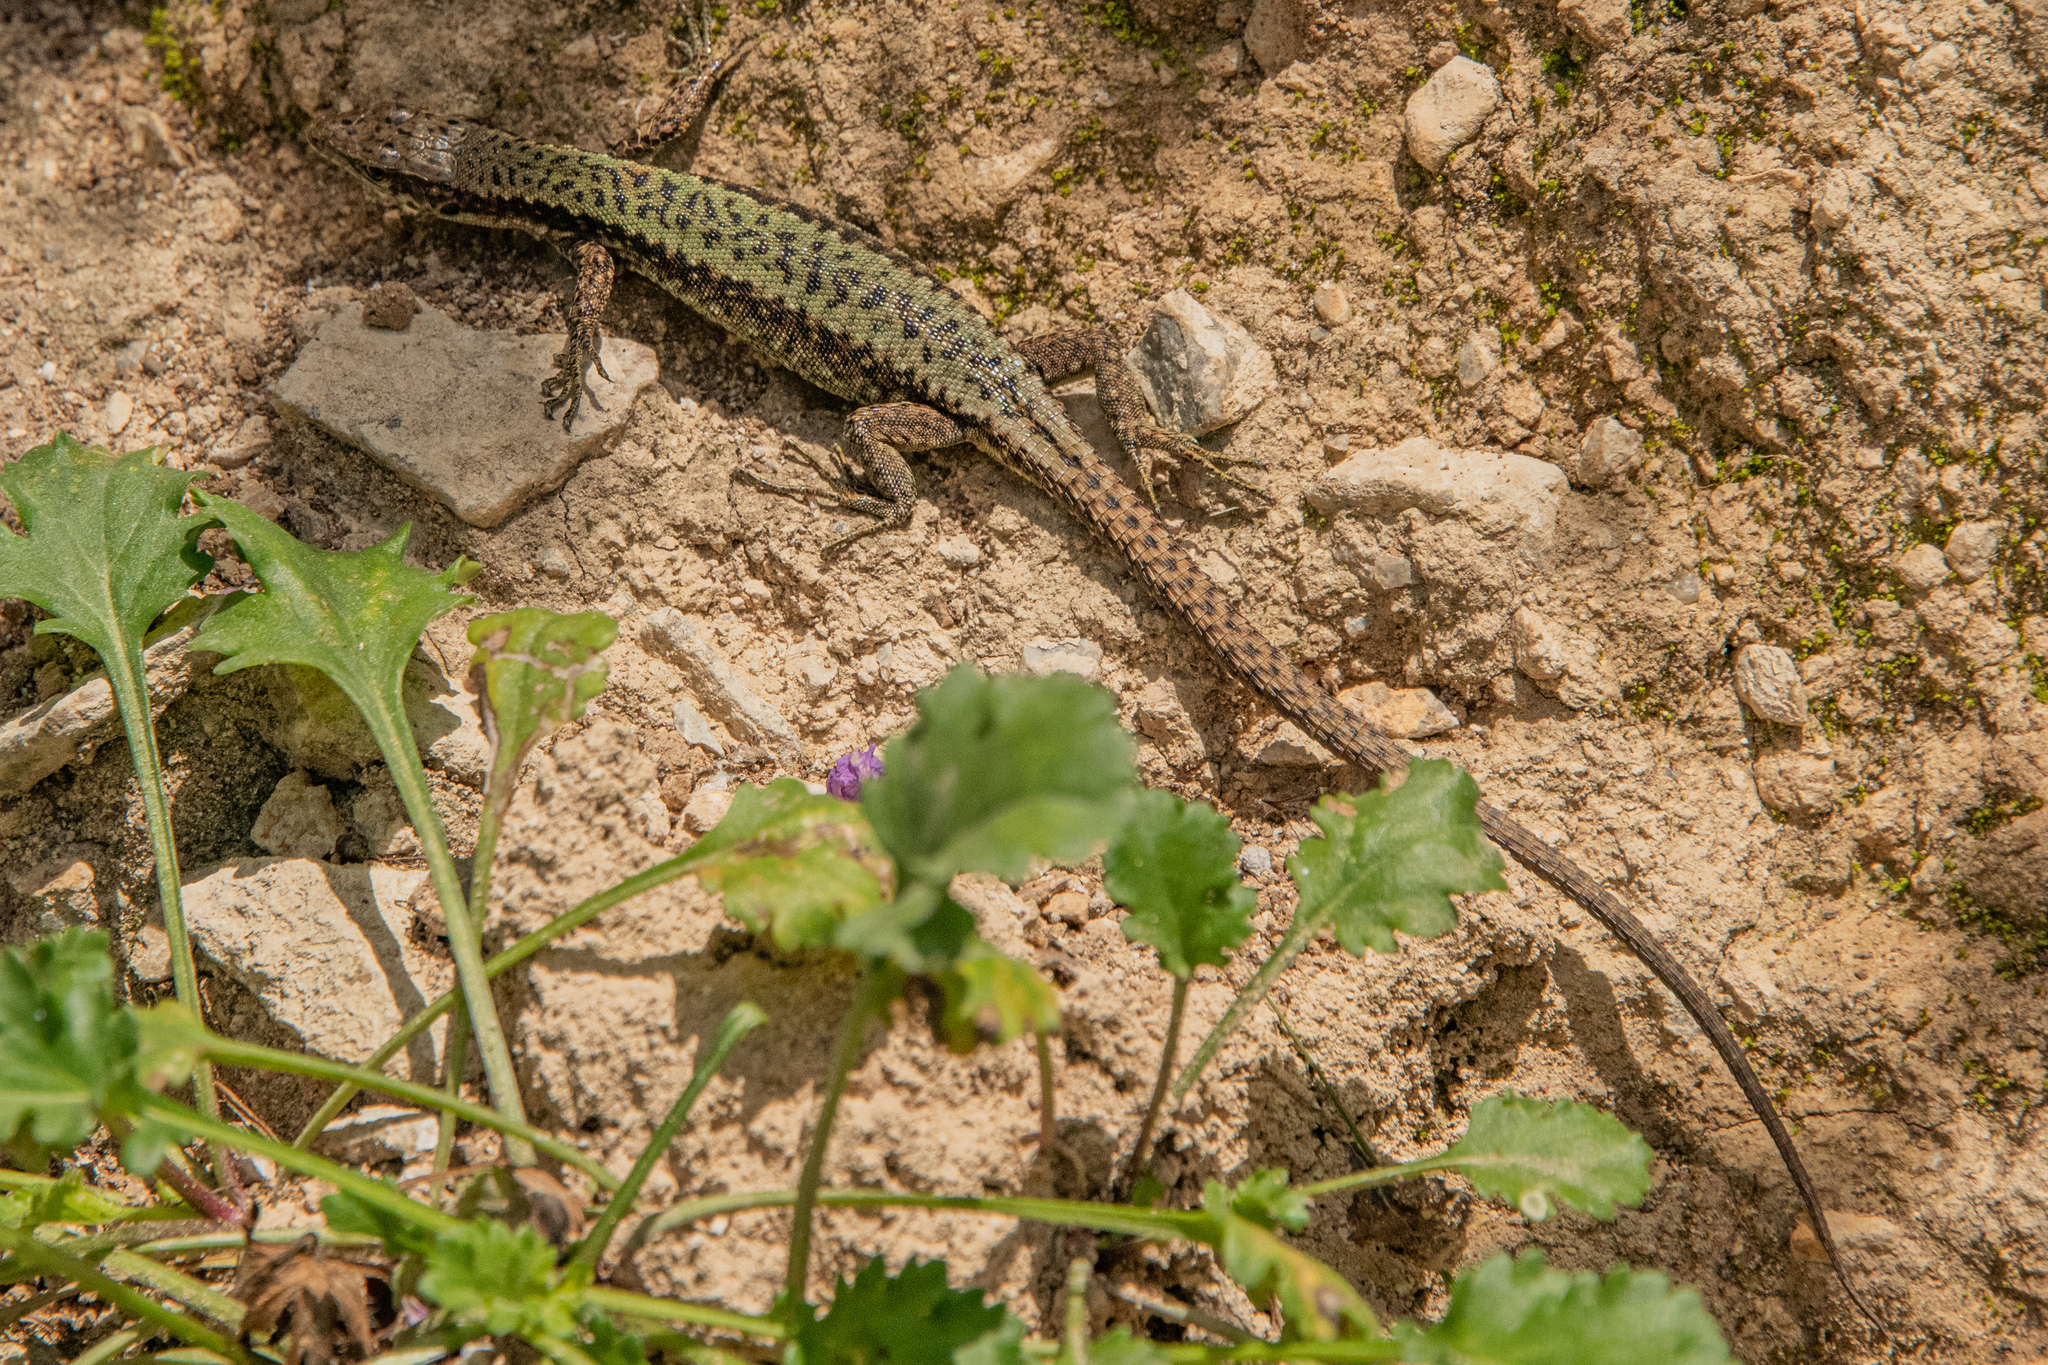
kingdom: Animalia
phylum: Chordata
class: Squamata
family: Lacertidae
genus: Darevskia
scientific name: Darevskia armeniaca
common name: Armenian lizard
